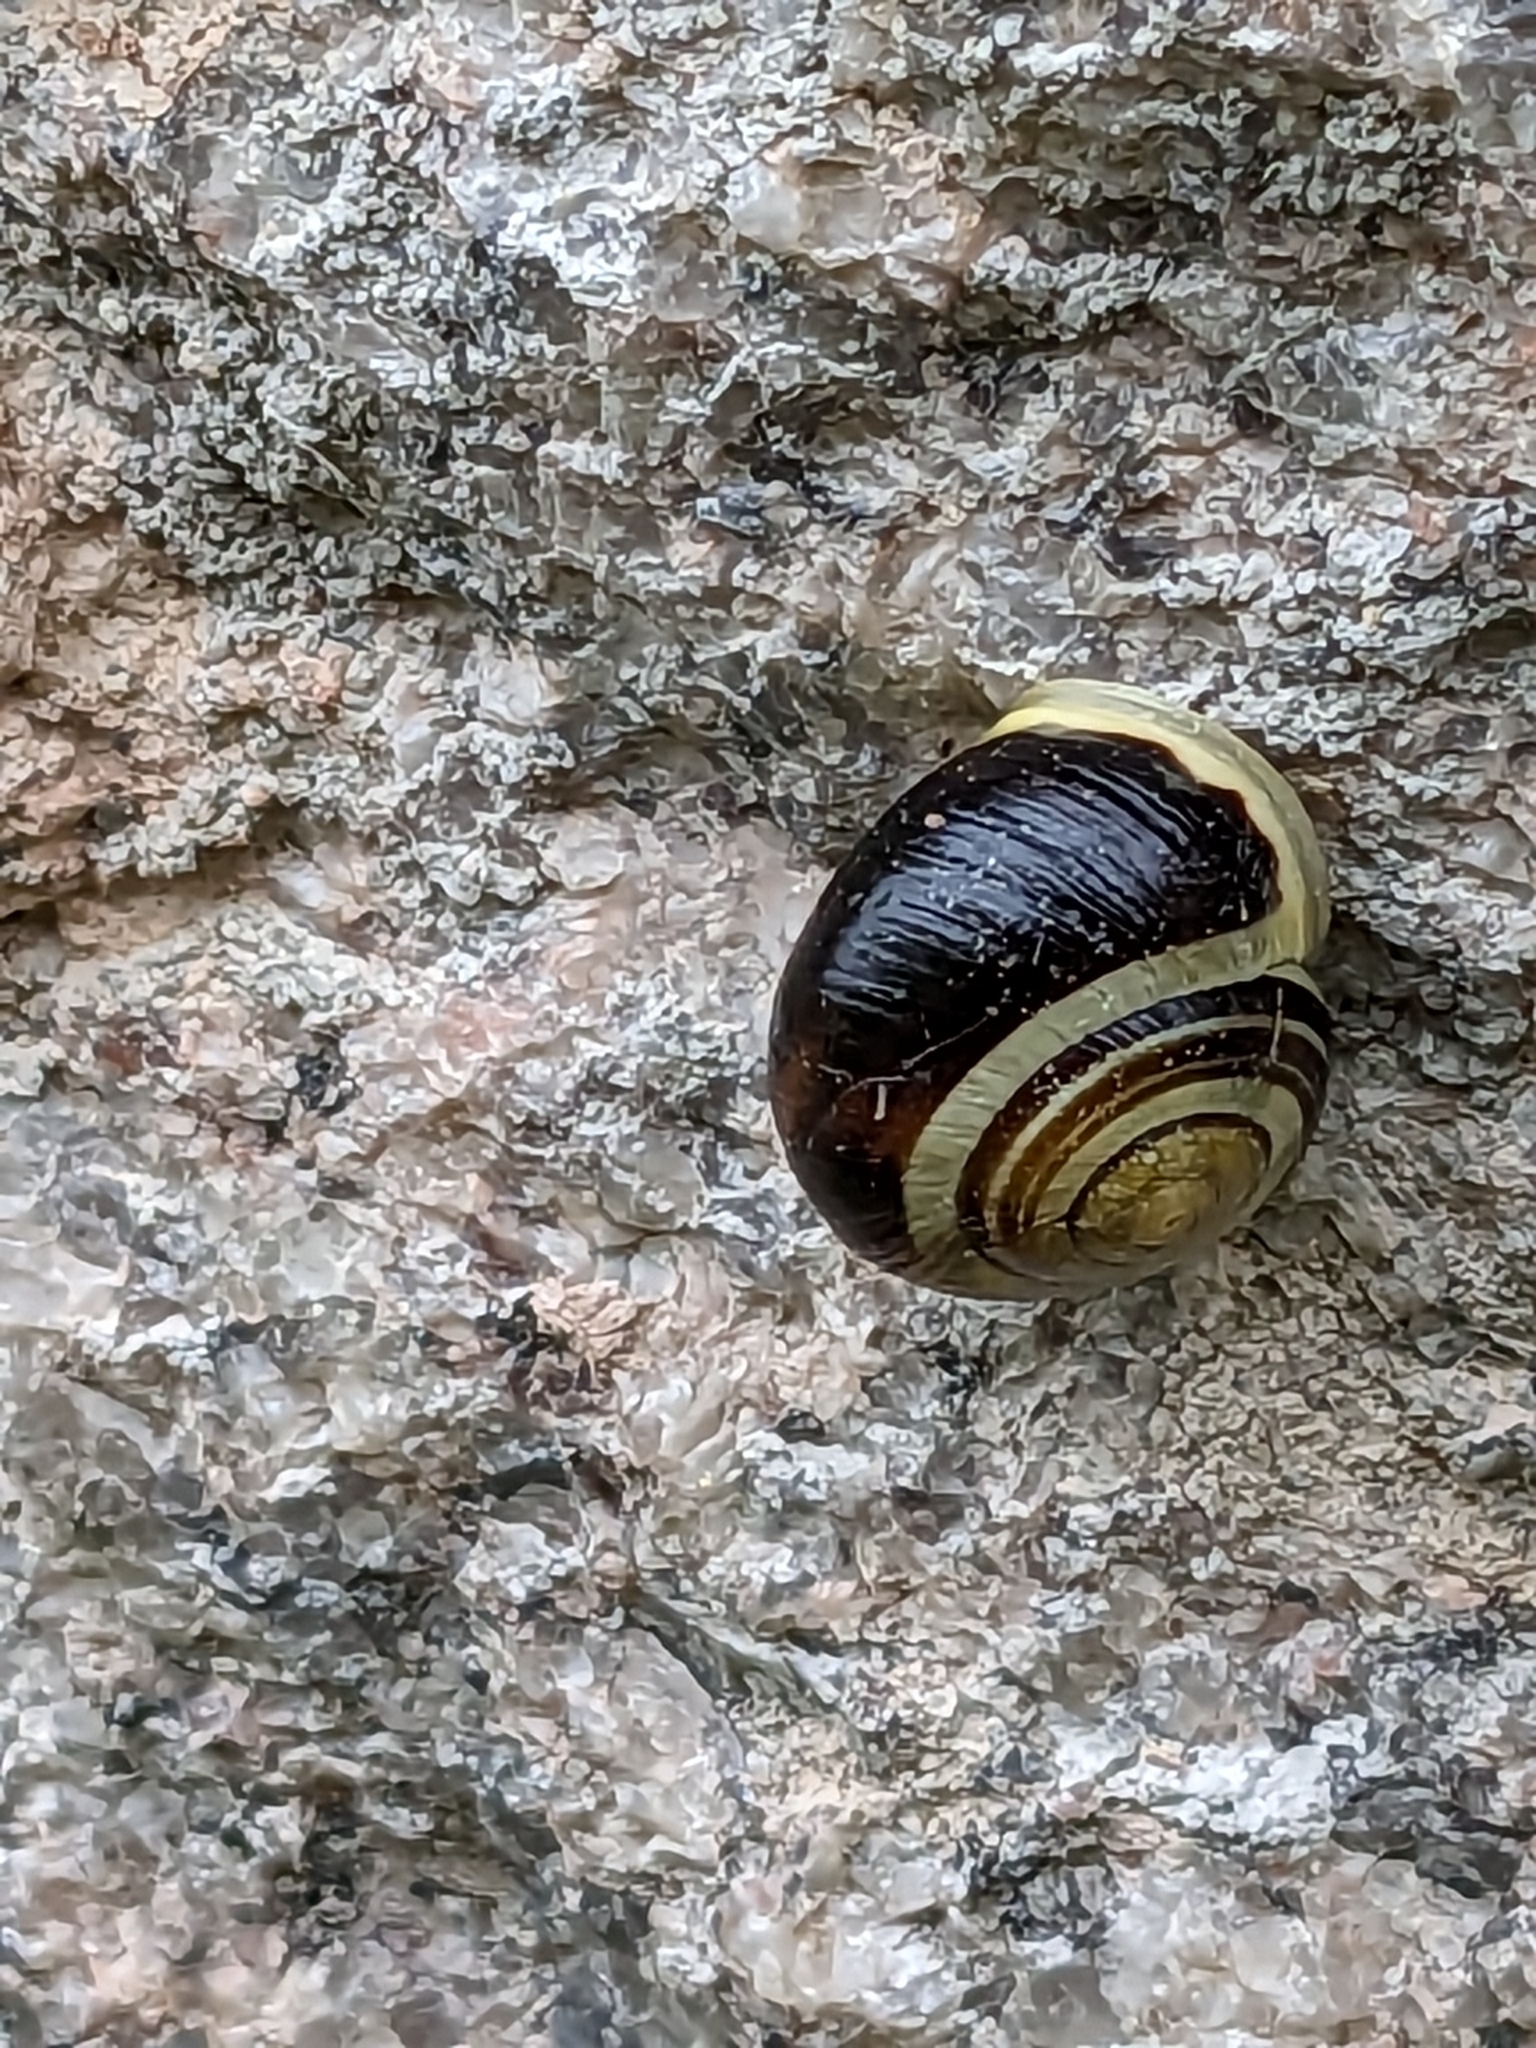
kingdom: Animalia
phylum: Mollusca
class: Gastropoda
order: Stylommatophora
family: Helicidae
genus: Cepaea
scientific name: Cepaea hortensis
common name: White-lip gardensnail
